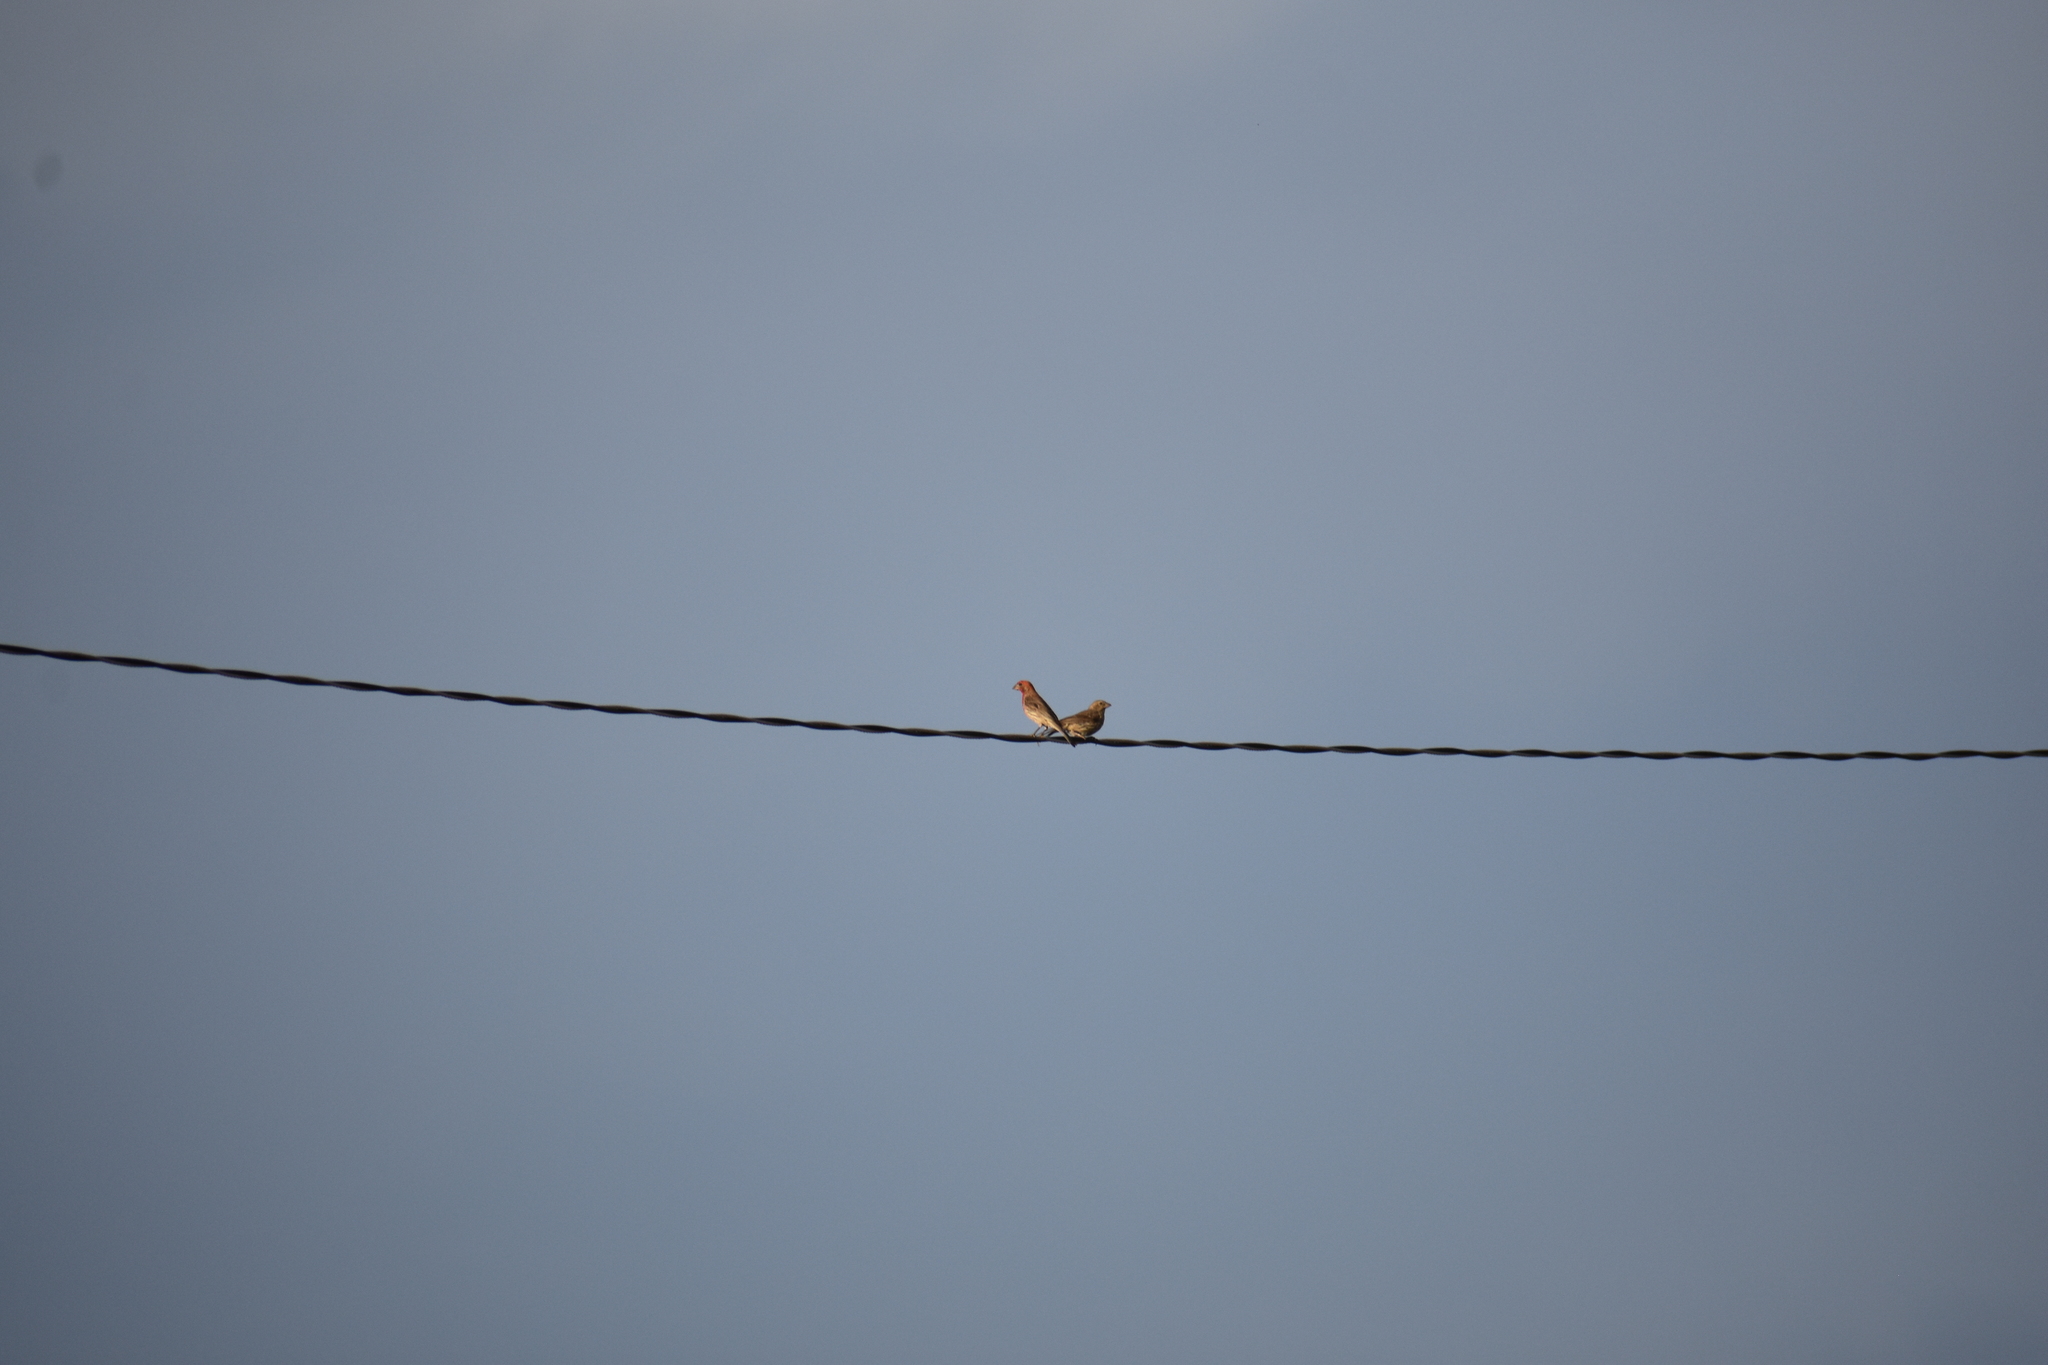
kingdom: Animalia
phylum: Chordata
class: Aves
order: Passeriformes
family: Fringillidae
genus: Haemorhous
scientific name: Haemorhous mexicanus
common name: House finch
